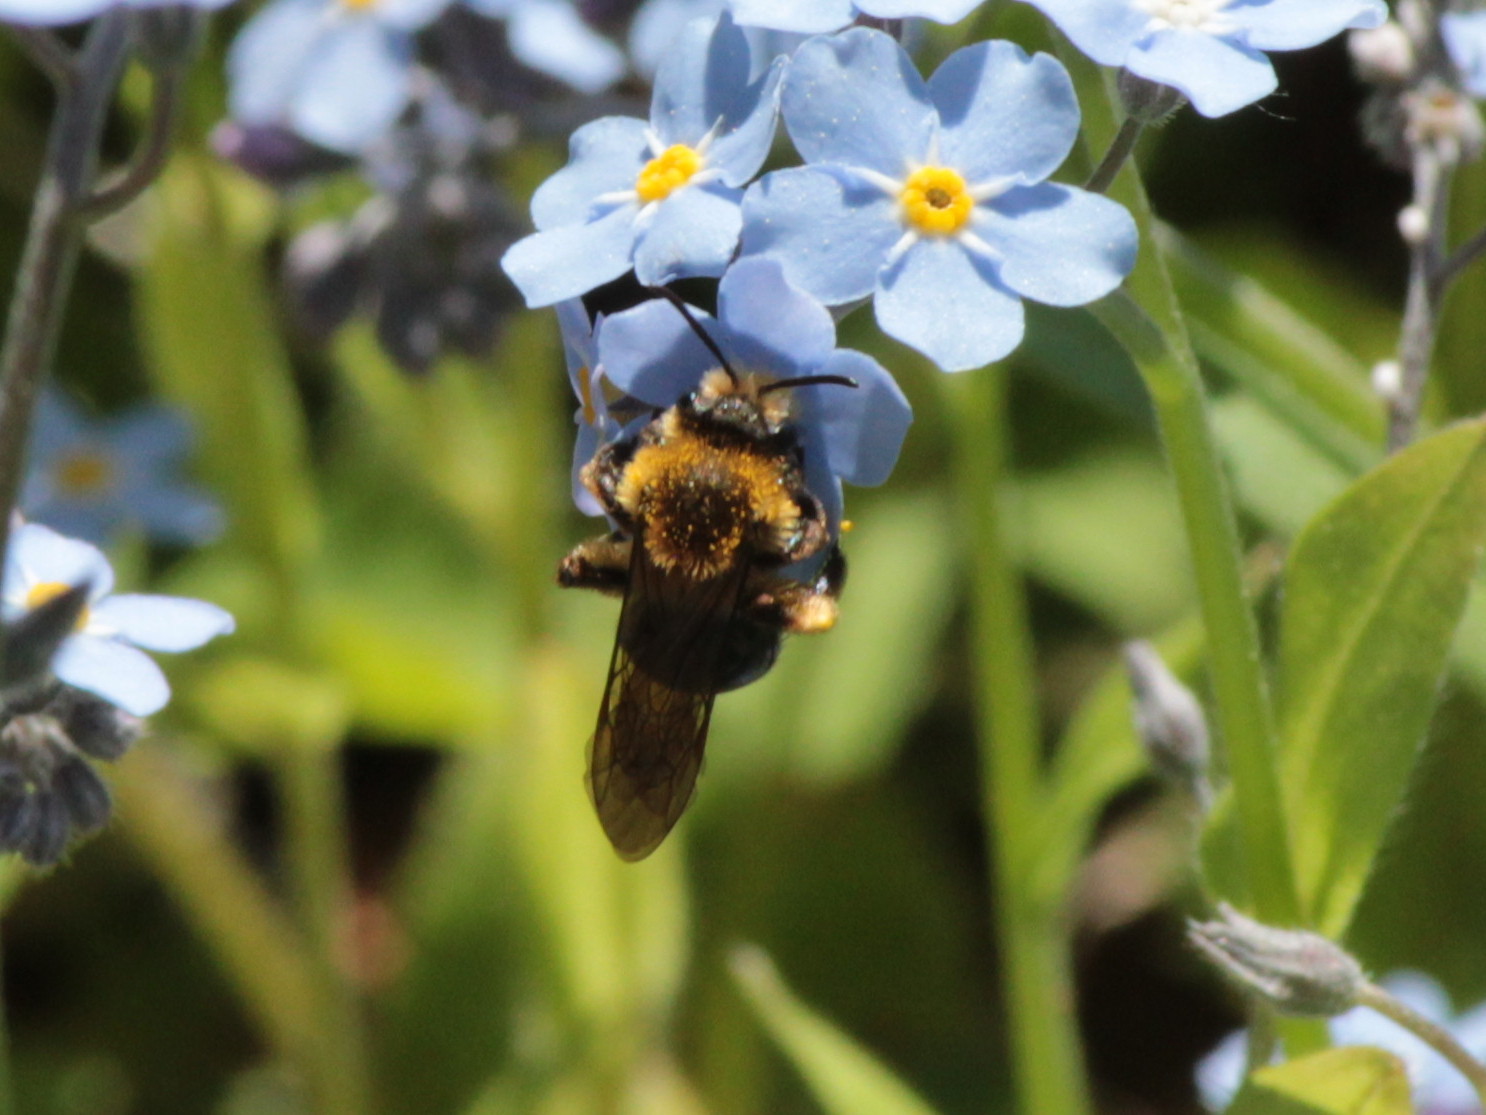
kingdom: Animalia
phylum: Arthropoda
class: Insecta
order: Hymenoptera
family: Andrenidae
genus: Andrena
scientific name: Andrena dunningi
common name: Dunning's miner
